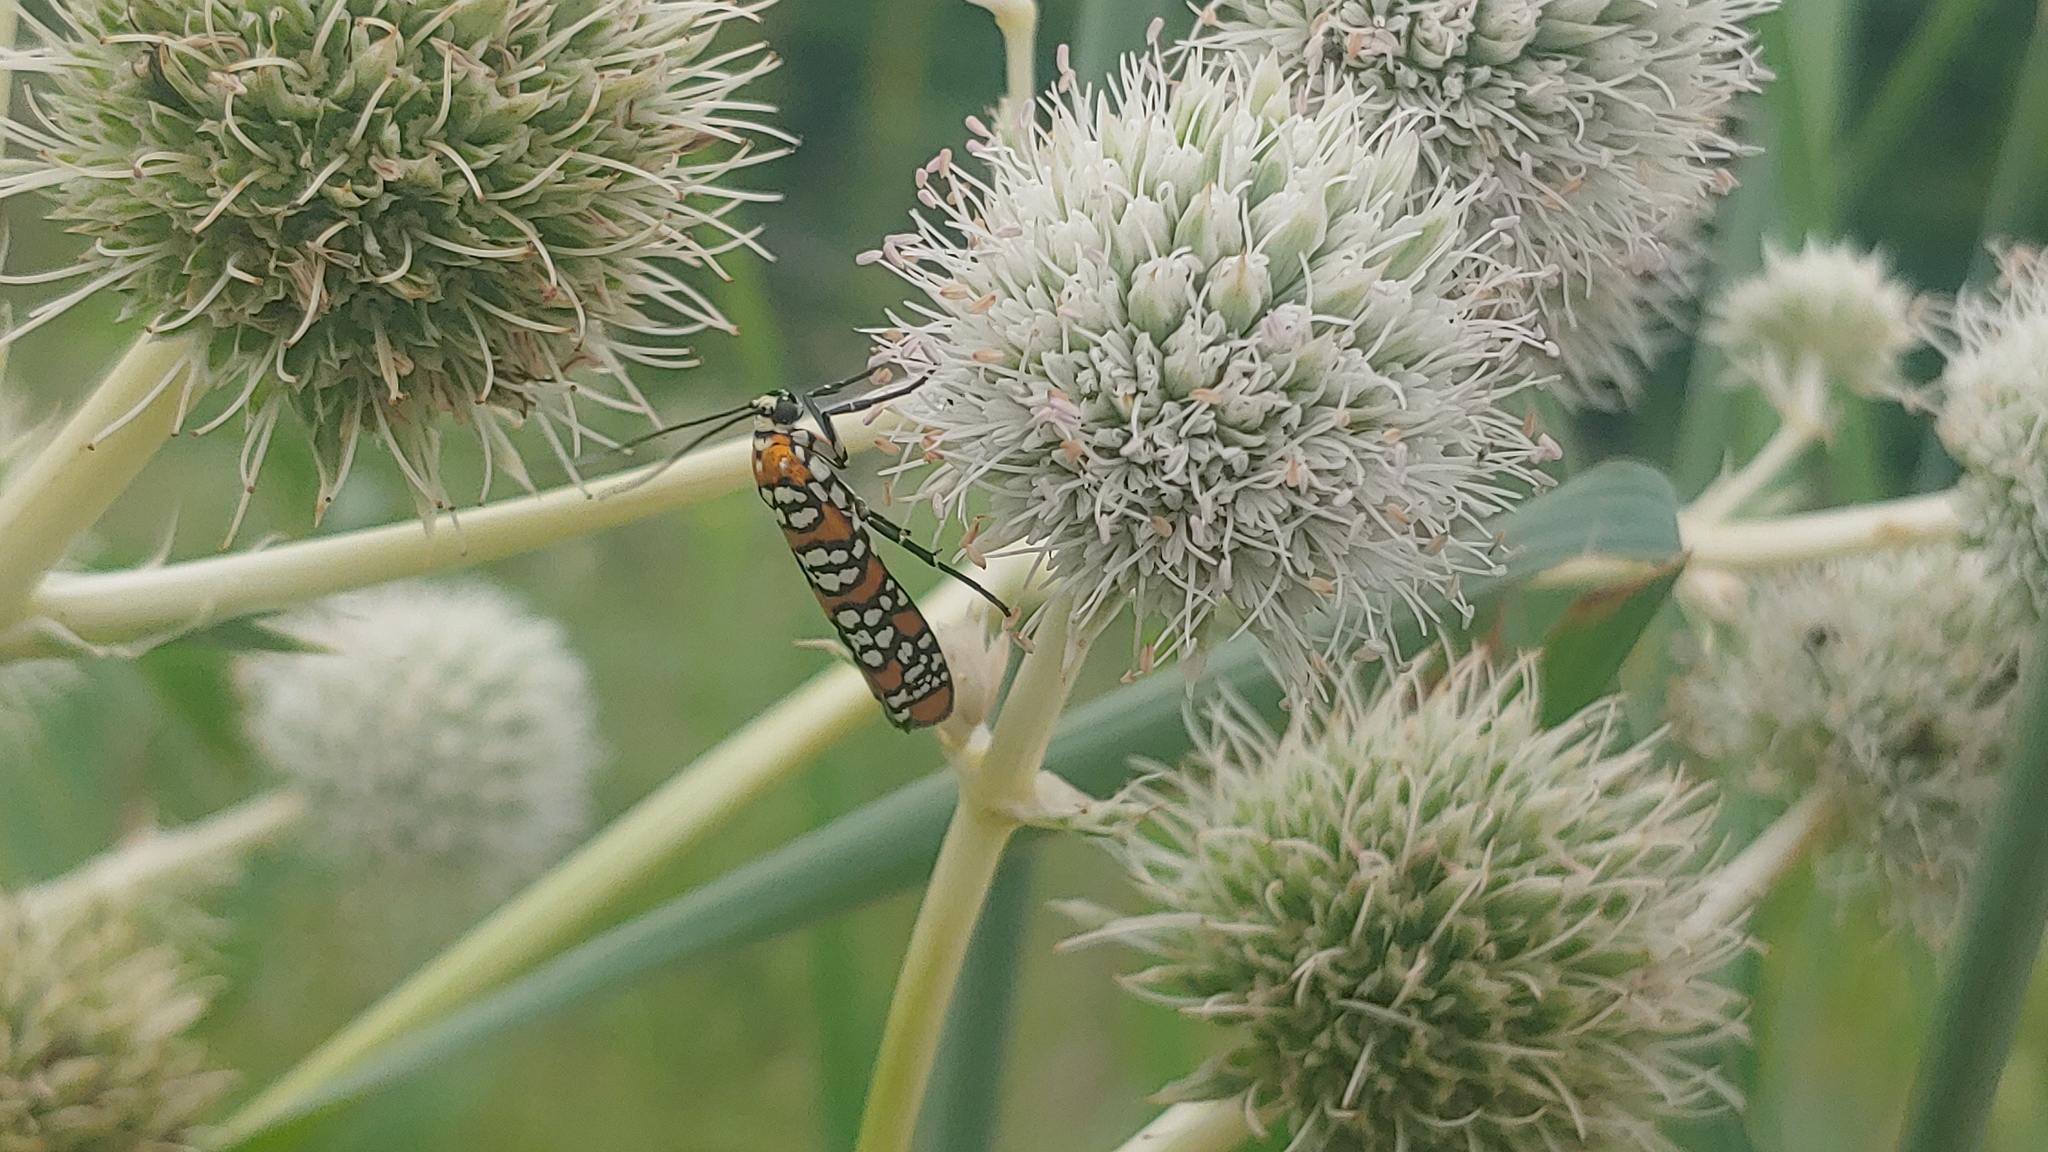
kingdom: Animalia
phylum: Arthropoda
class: Insecta
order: Lepidoptera
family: Attevidae
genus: Atteva
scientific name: Atteva punctella
